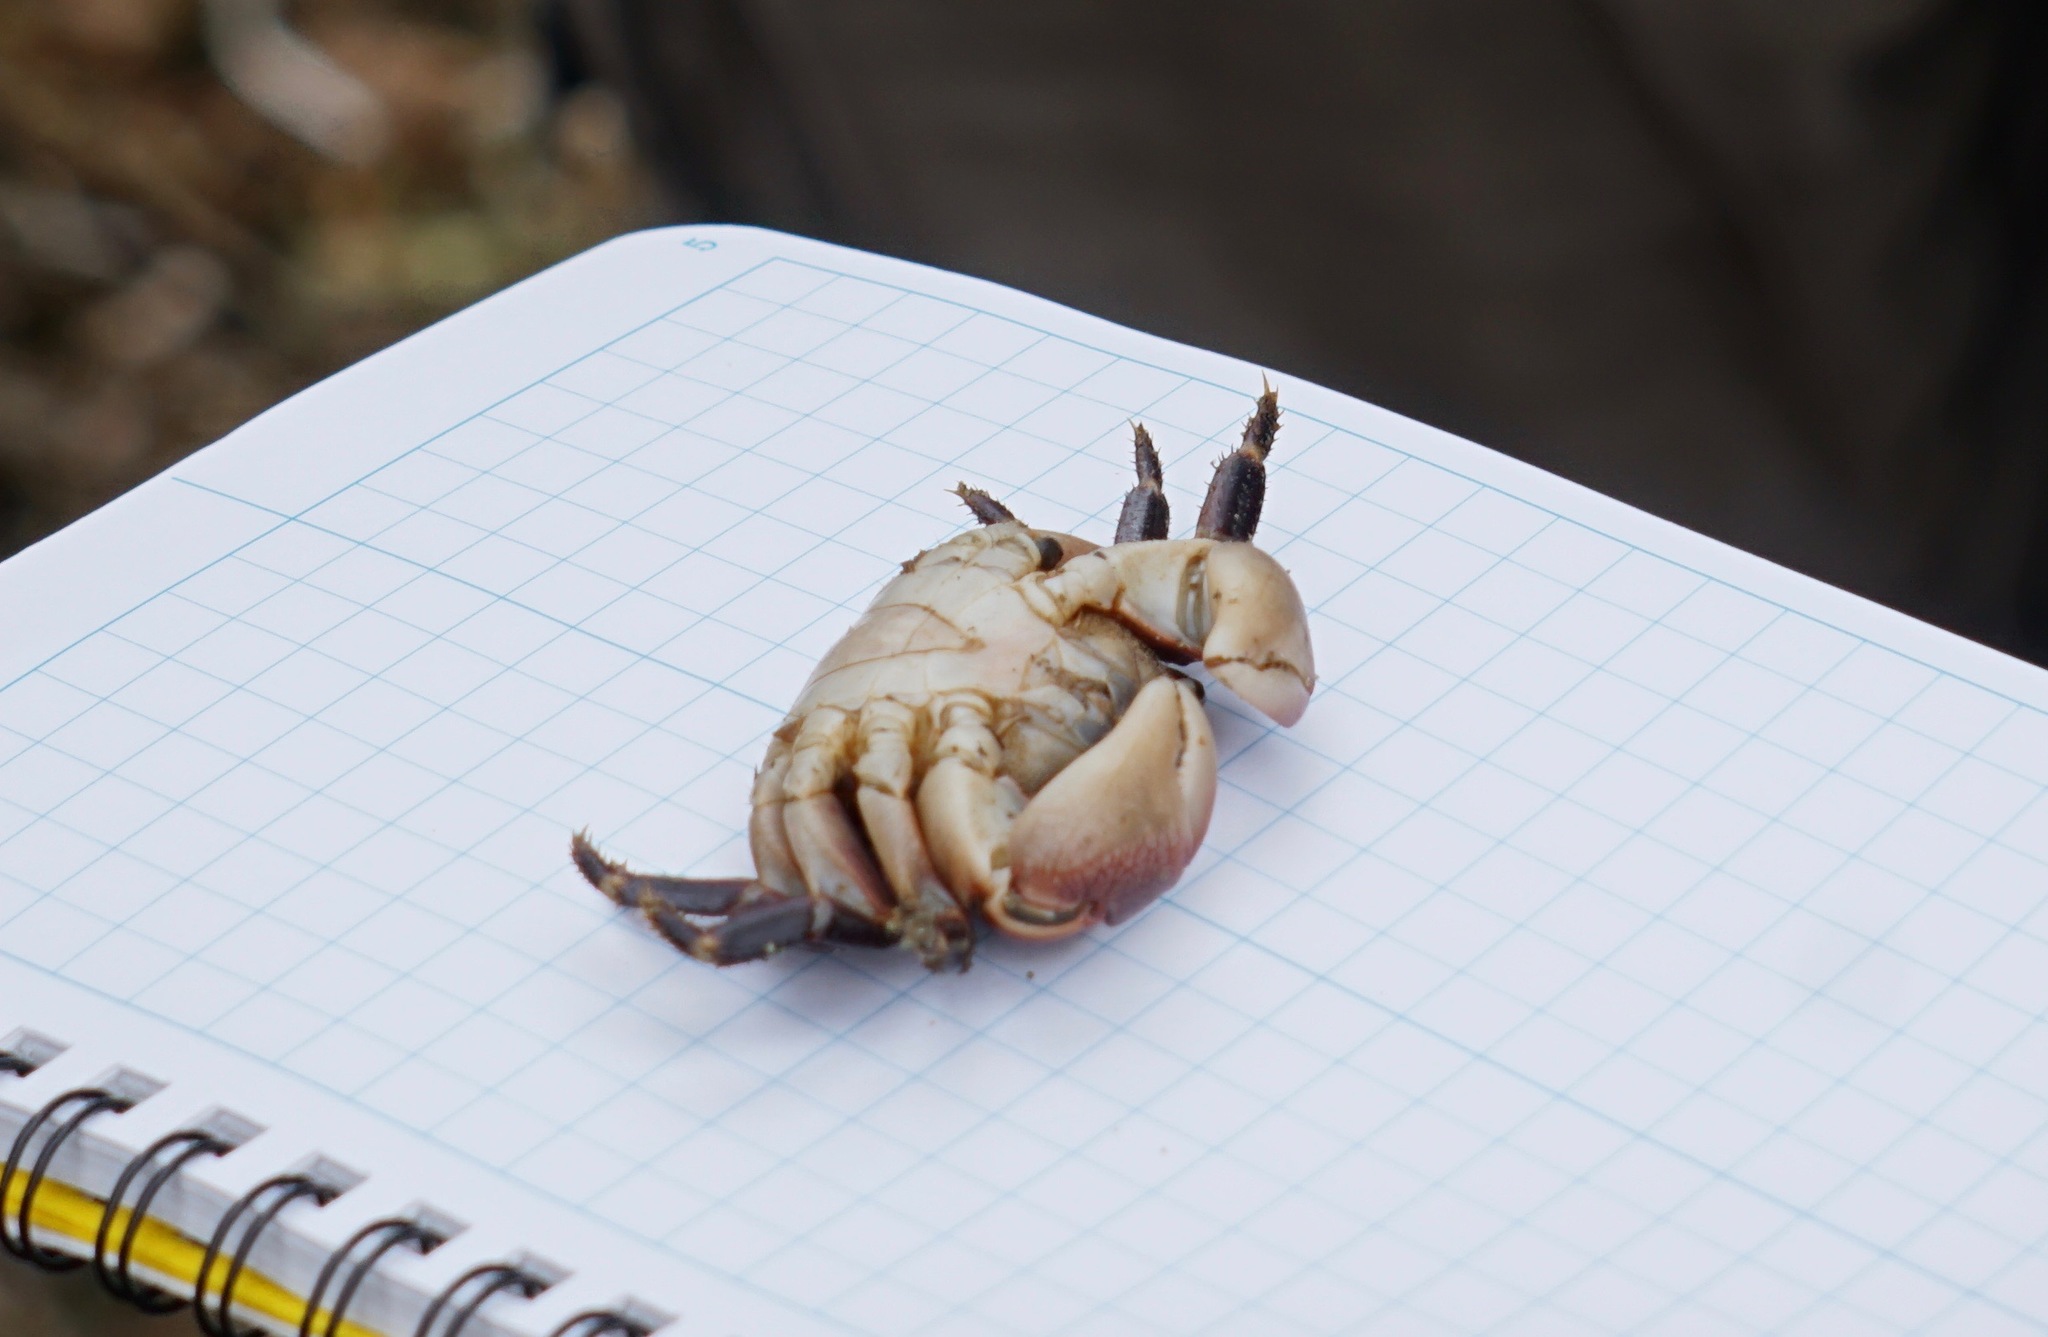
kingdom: Animalia
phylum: Arthropoda
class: Malacostraca
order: Decapoda
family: Grapsidae
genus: Pachygrapsus
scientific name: Pachygrapsus crassipes
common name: Striped shore crab
